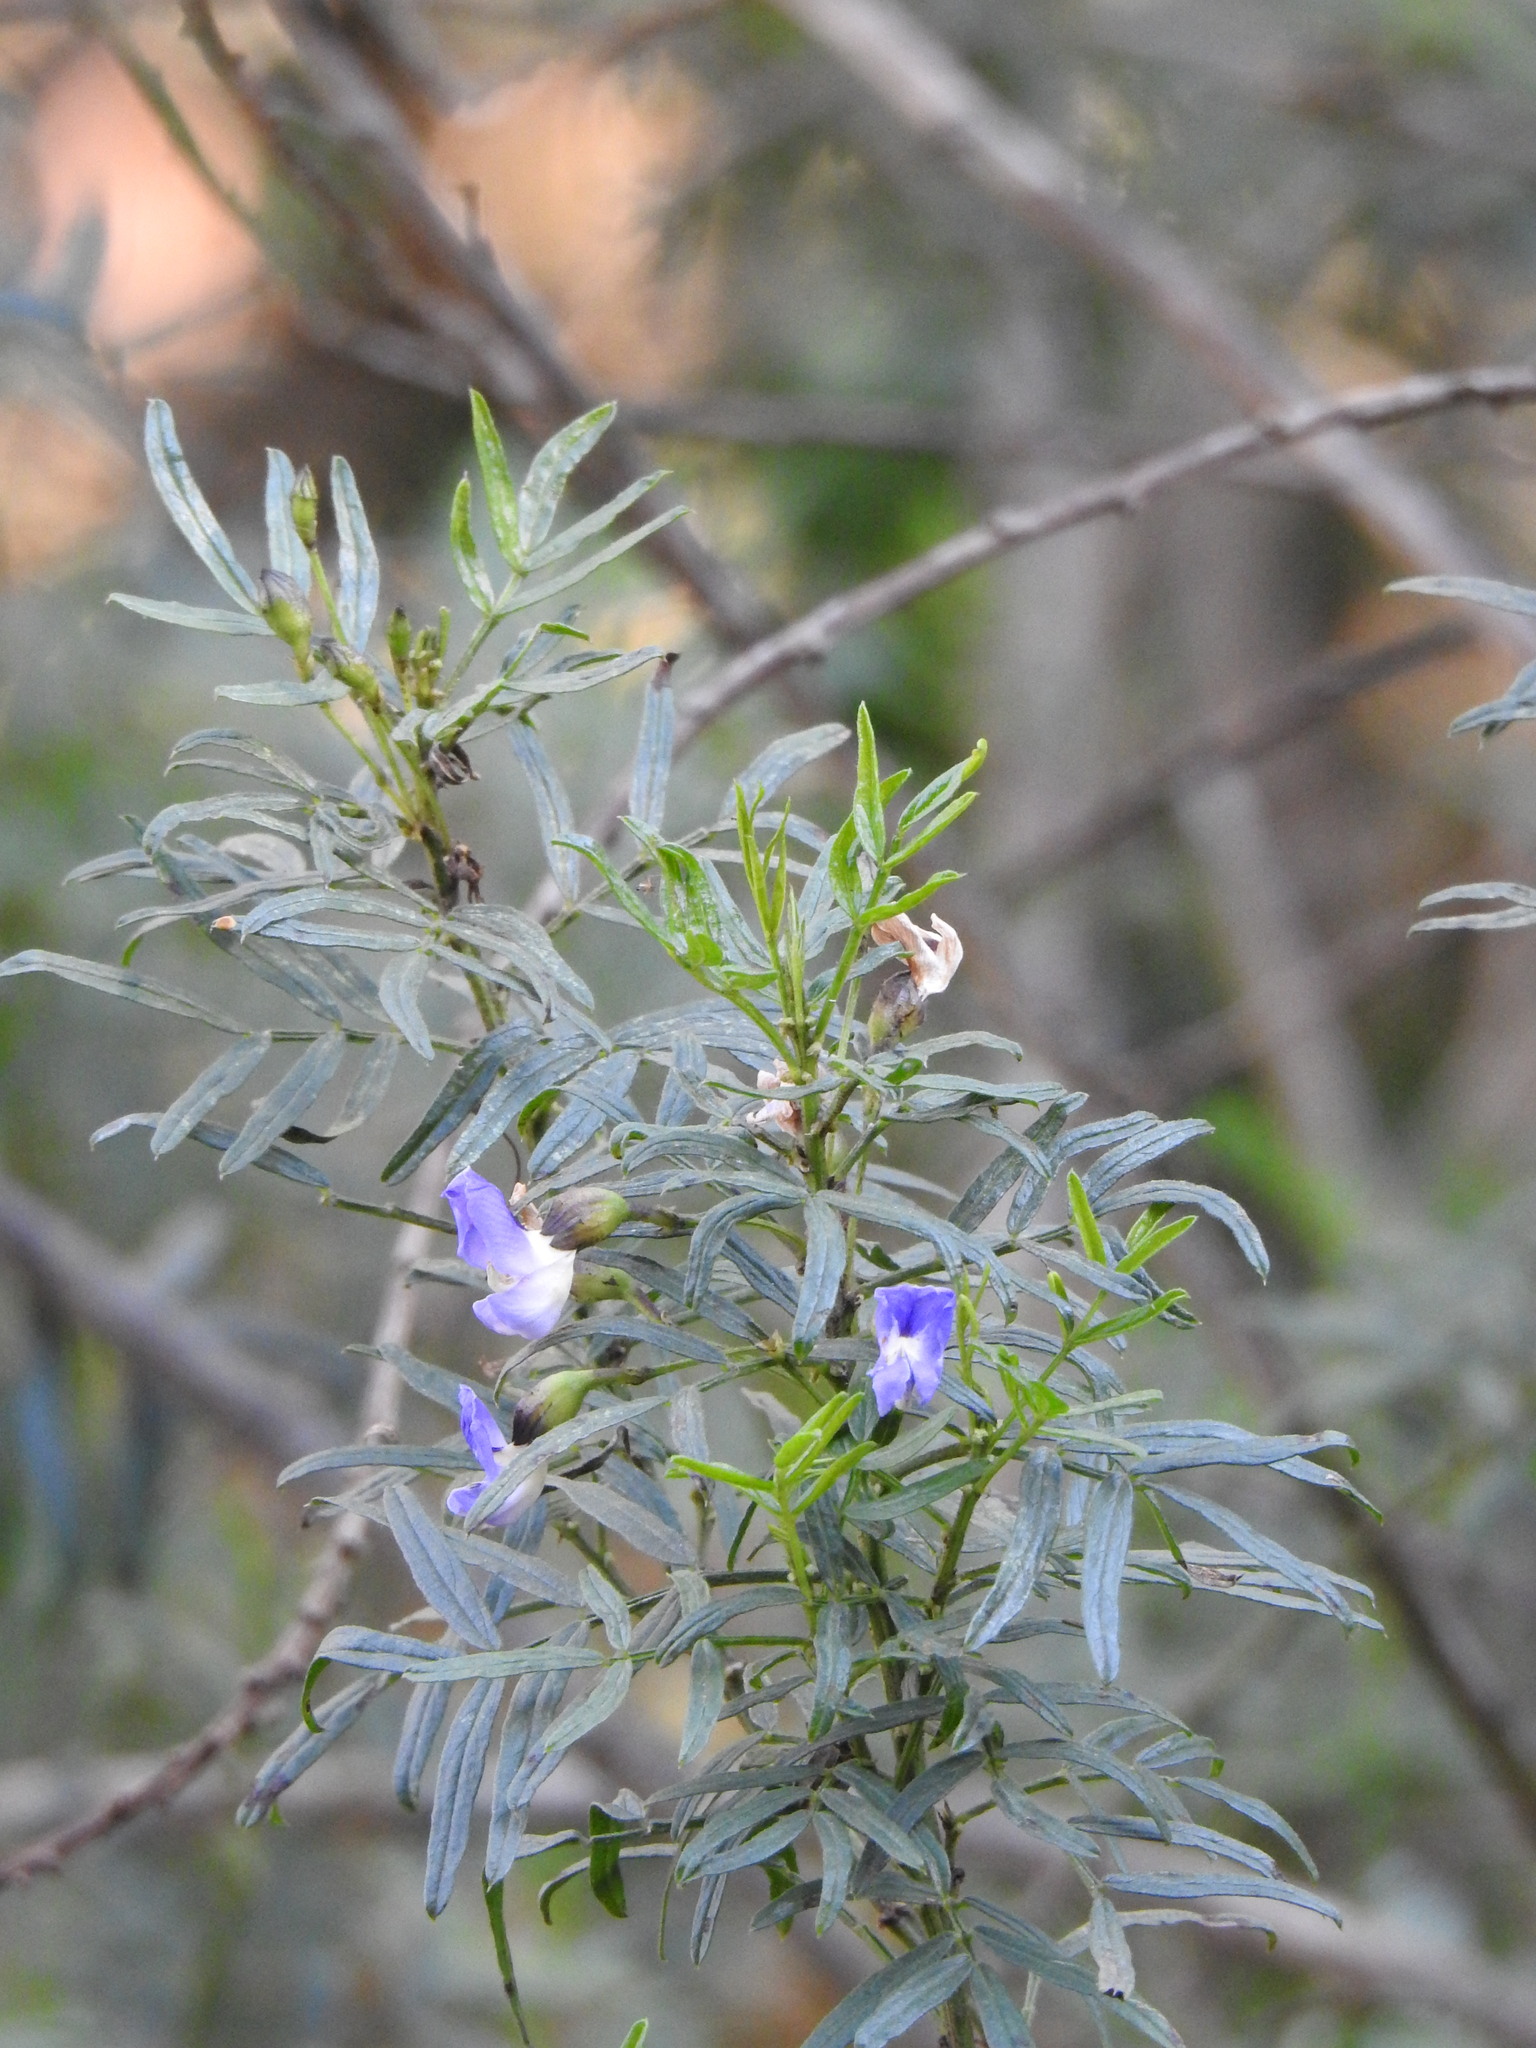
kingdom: Plantae
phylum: Tracheophyta
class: Magnoliopsida
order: Fabales
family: Fabaceae
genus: Psoralea
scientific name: Psoralea platyphylla
